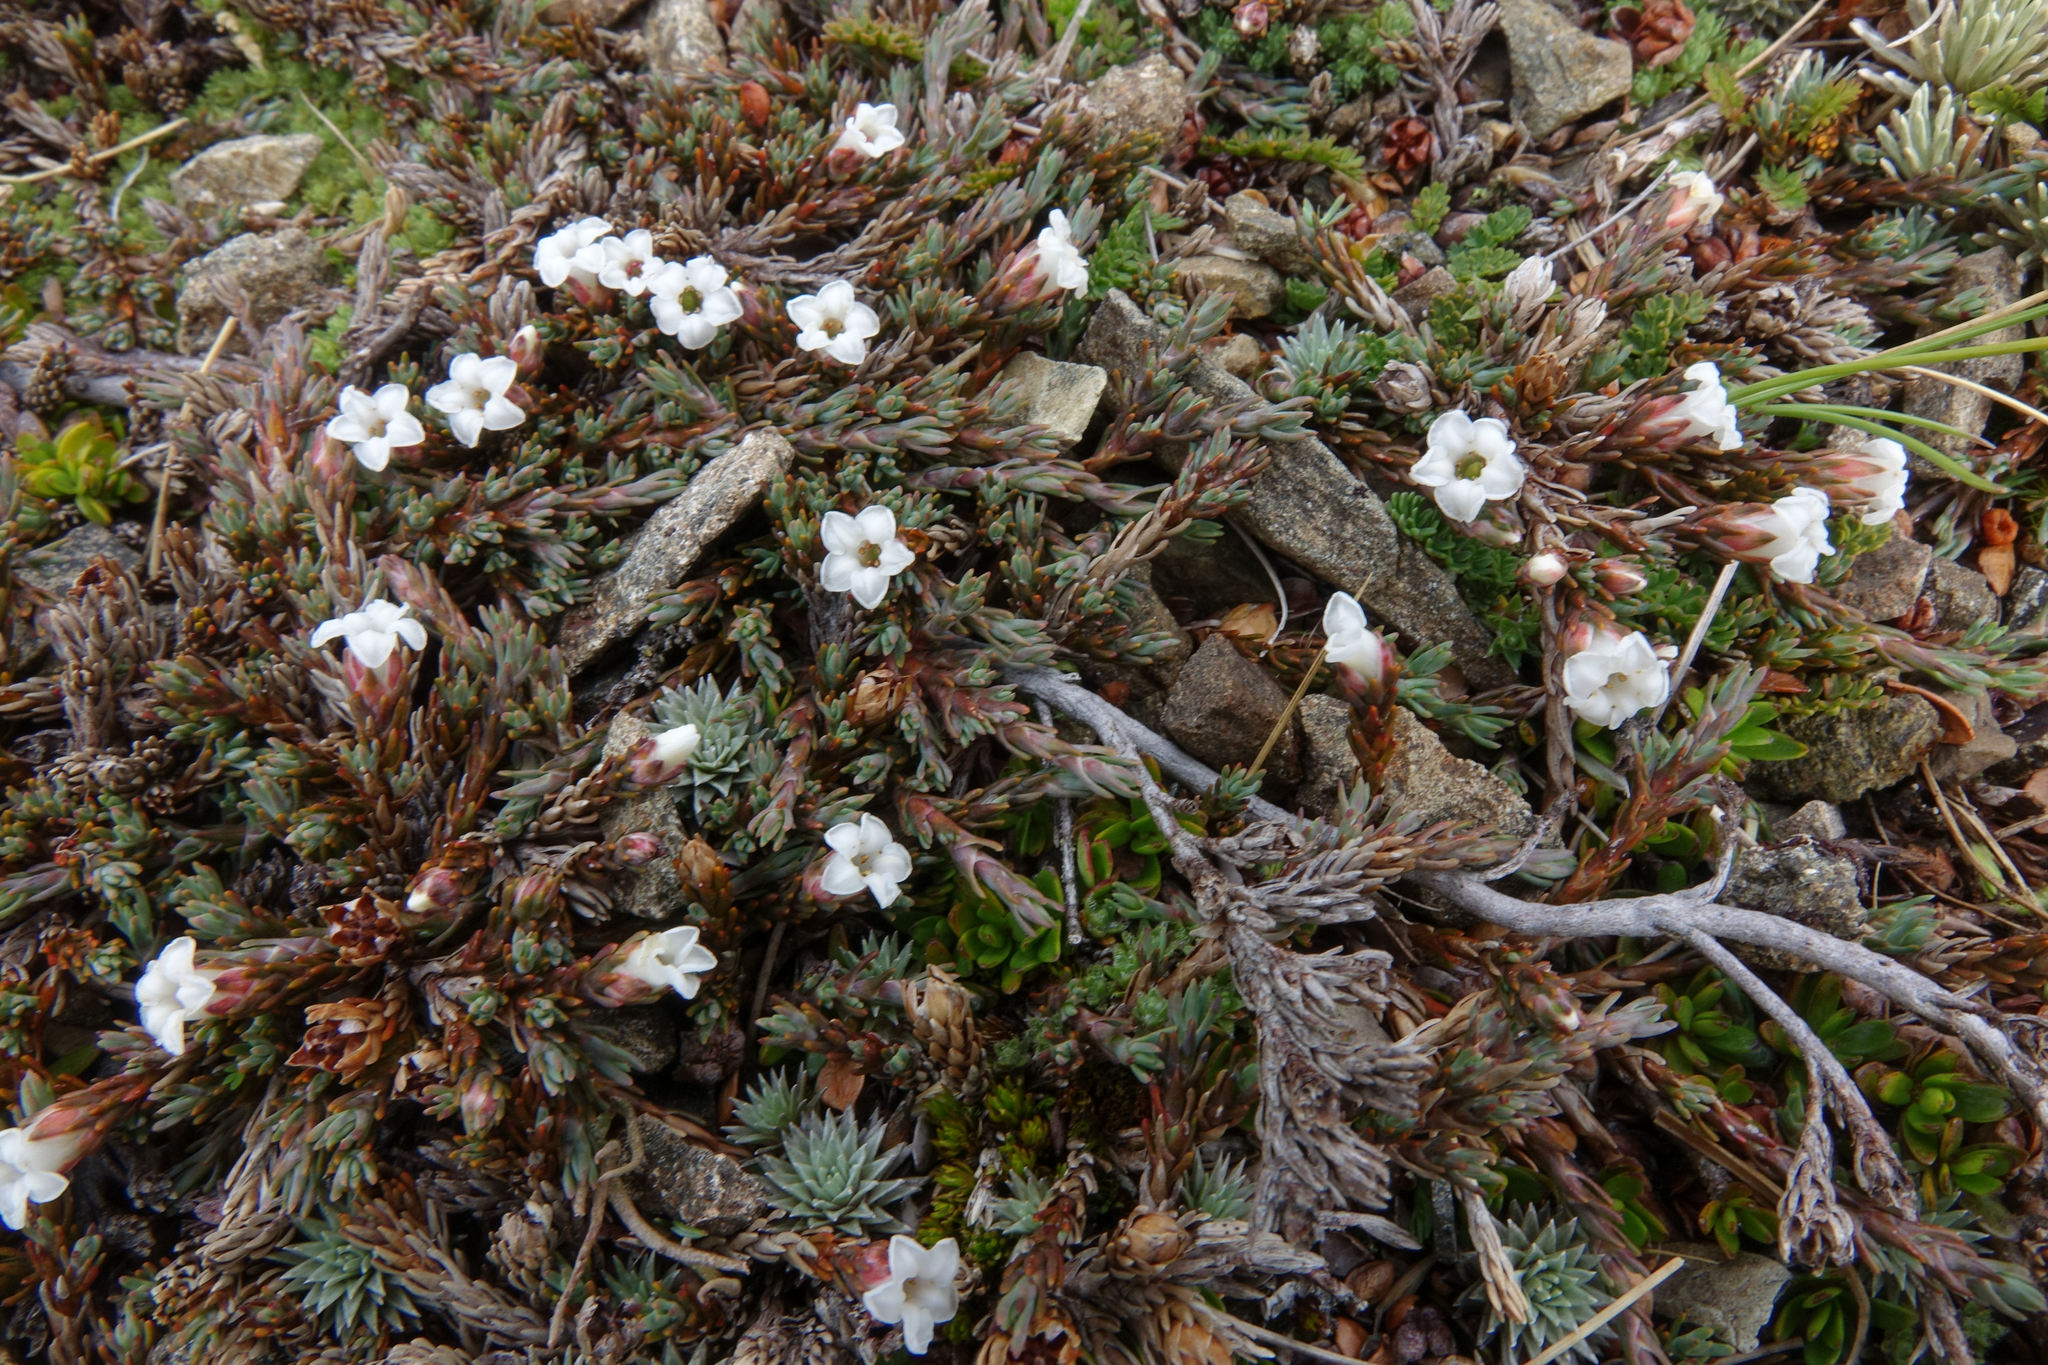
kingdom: Plantae
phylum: Tracheophyta
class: Magnoliopsida
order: Ericales
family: Ericaceae
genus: Dracophyllum
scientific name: Dracophyllum prostratum
